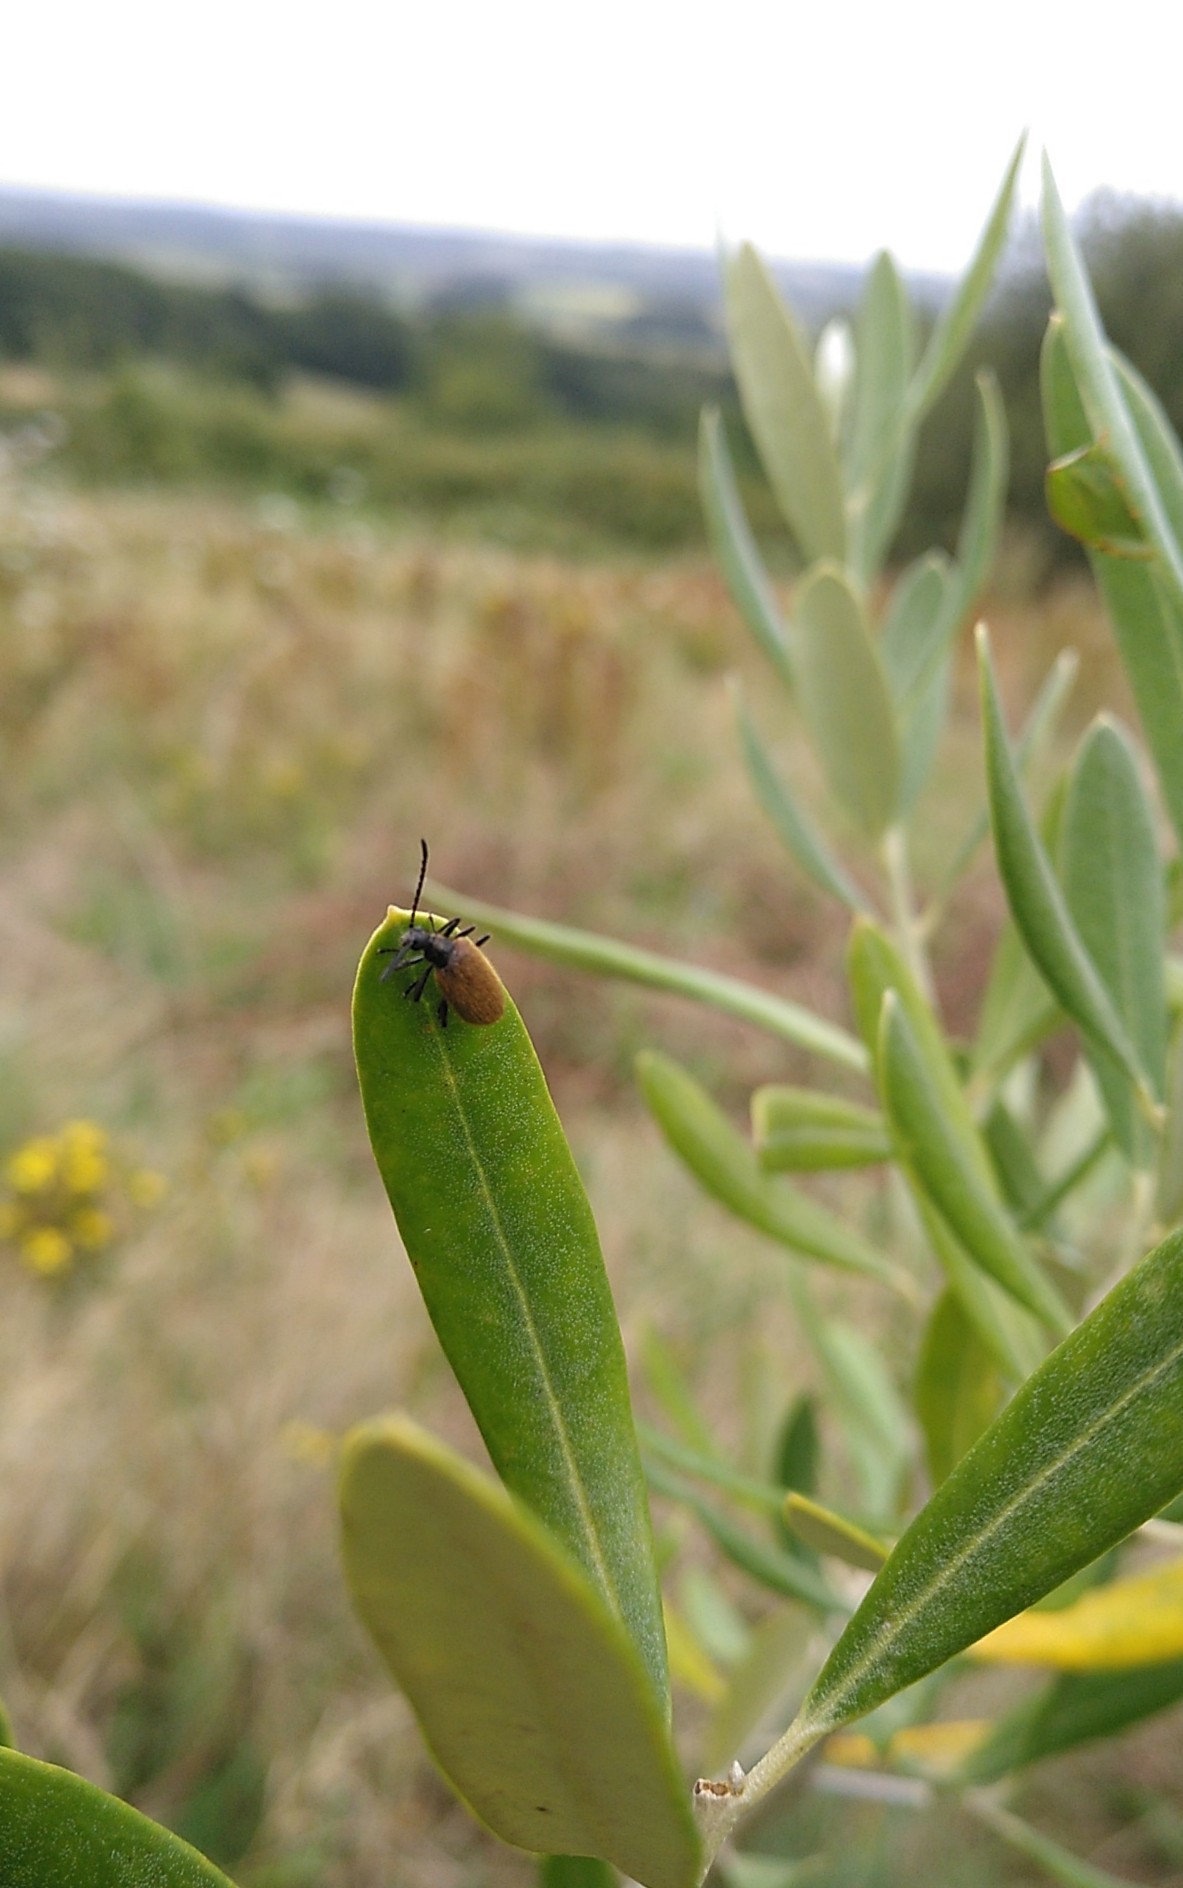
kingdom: Animalia
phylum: Arthropoda
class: Insecta
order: Coleoptera
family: Tenebrionidae
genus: Lagria
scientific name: Lagria hirta
